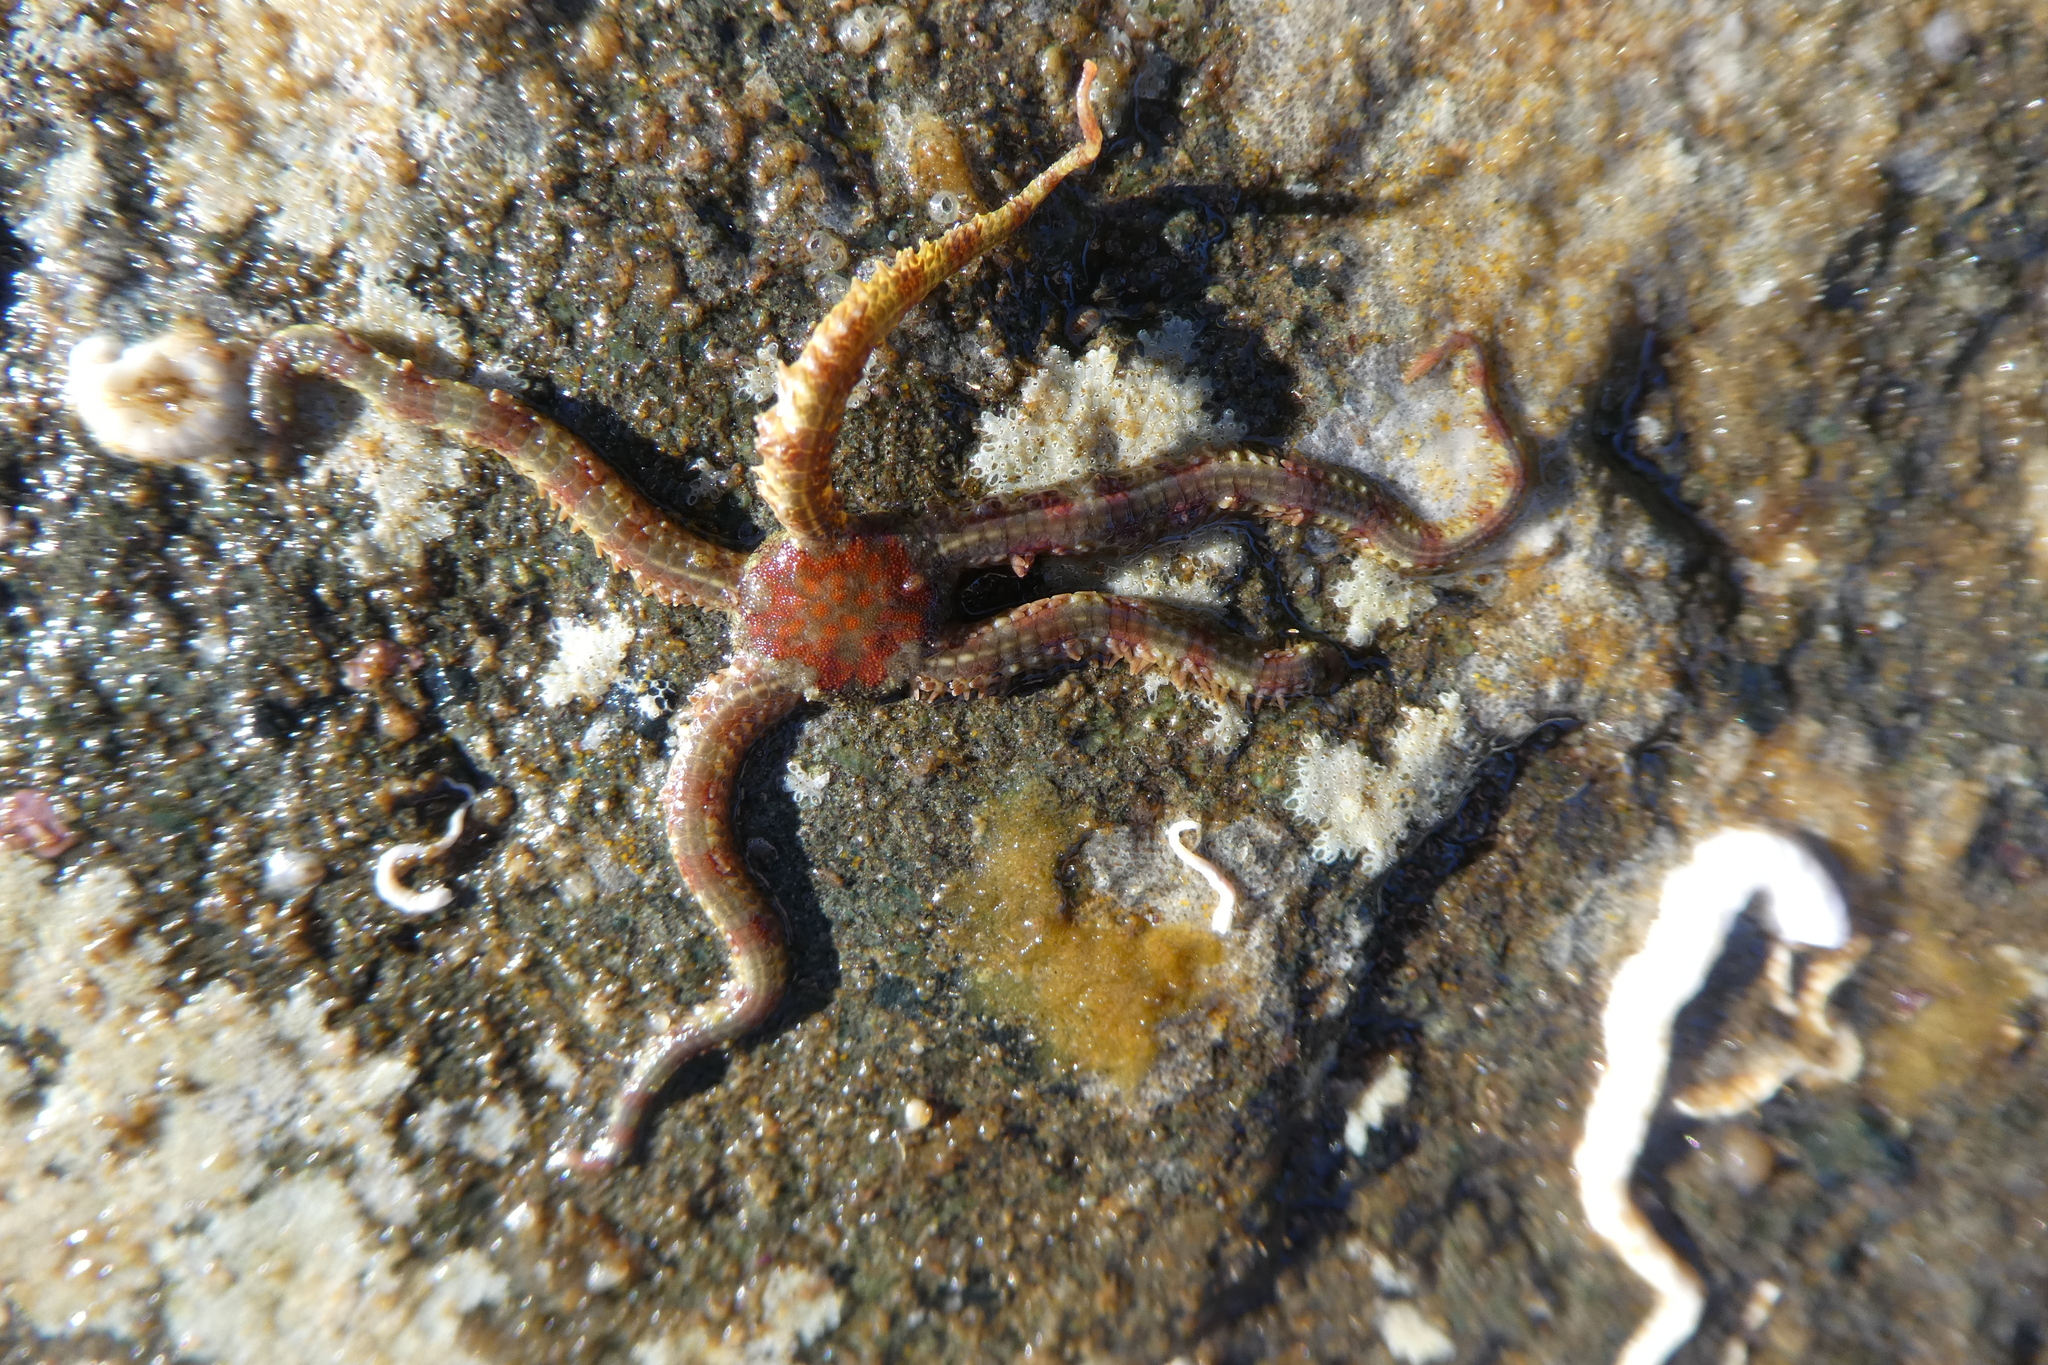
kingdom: Animalia
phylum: Echinodermata
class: Ophiuroidea
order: Amphilepidida
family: Ophiopholidae
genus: Ophiopholis
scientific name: Ophiopholis kennerlyi
